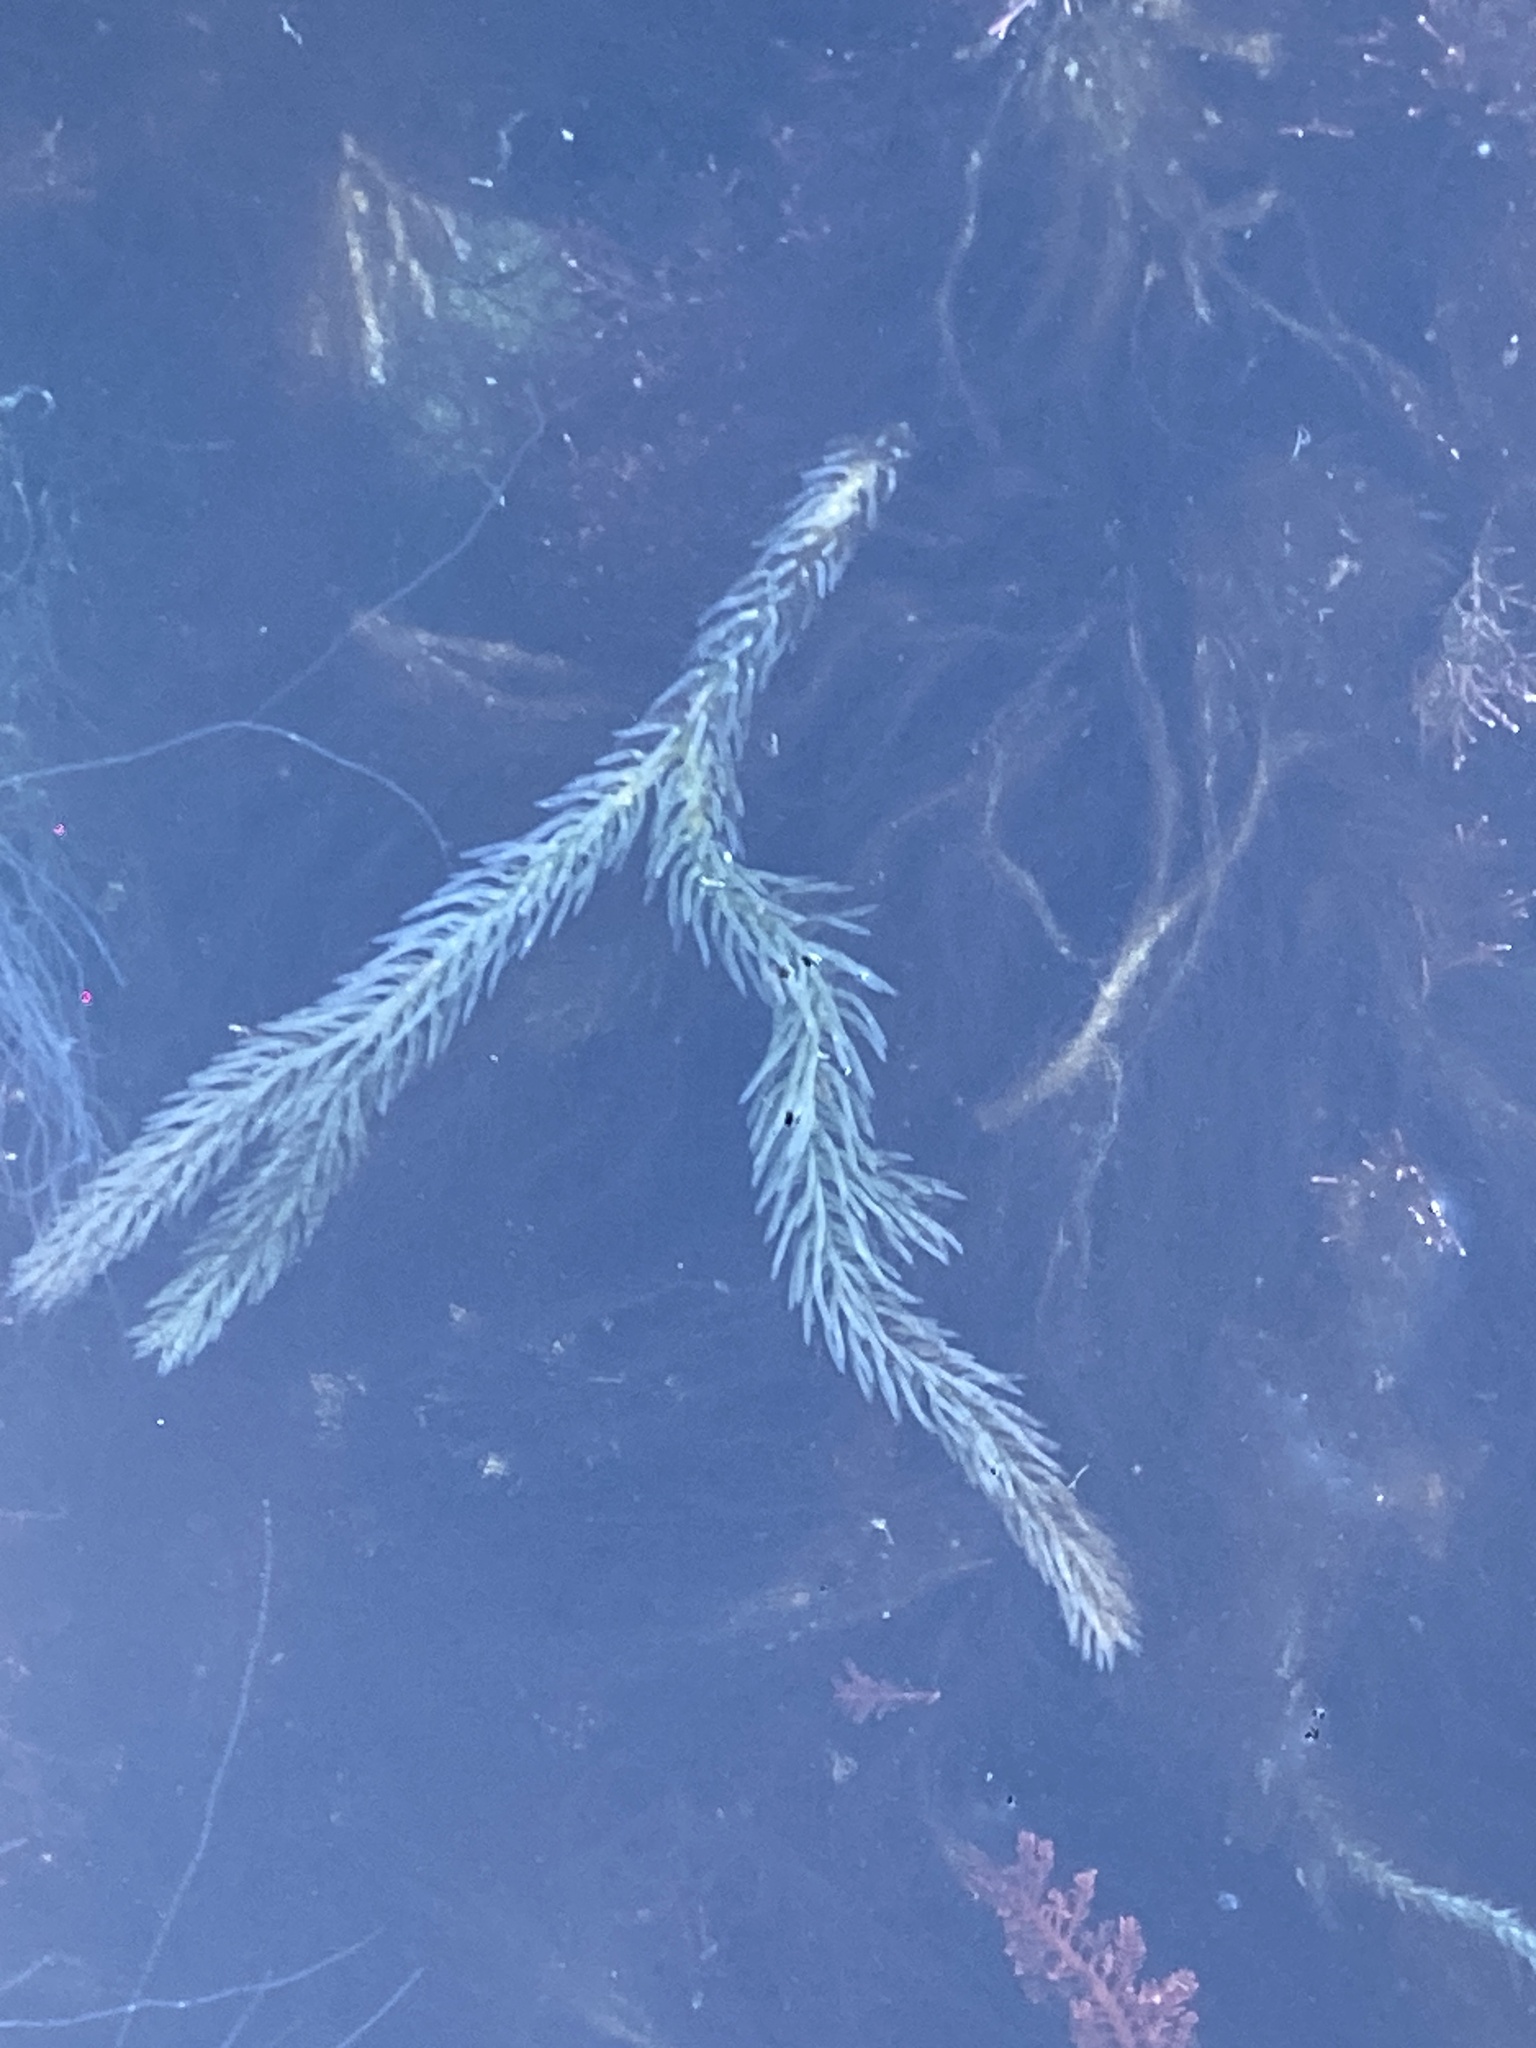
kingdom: Plantae
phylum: Chlorophyta
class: Ulvophyceae
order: Bryopsidales
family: Caulerpaceae
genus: Caulerpa
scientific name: Caulerpa brownii
